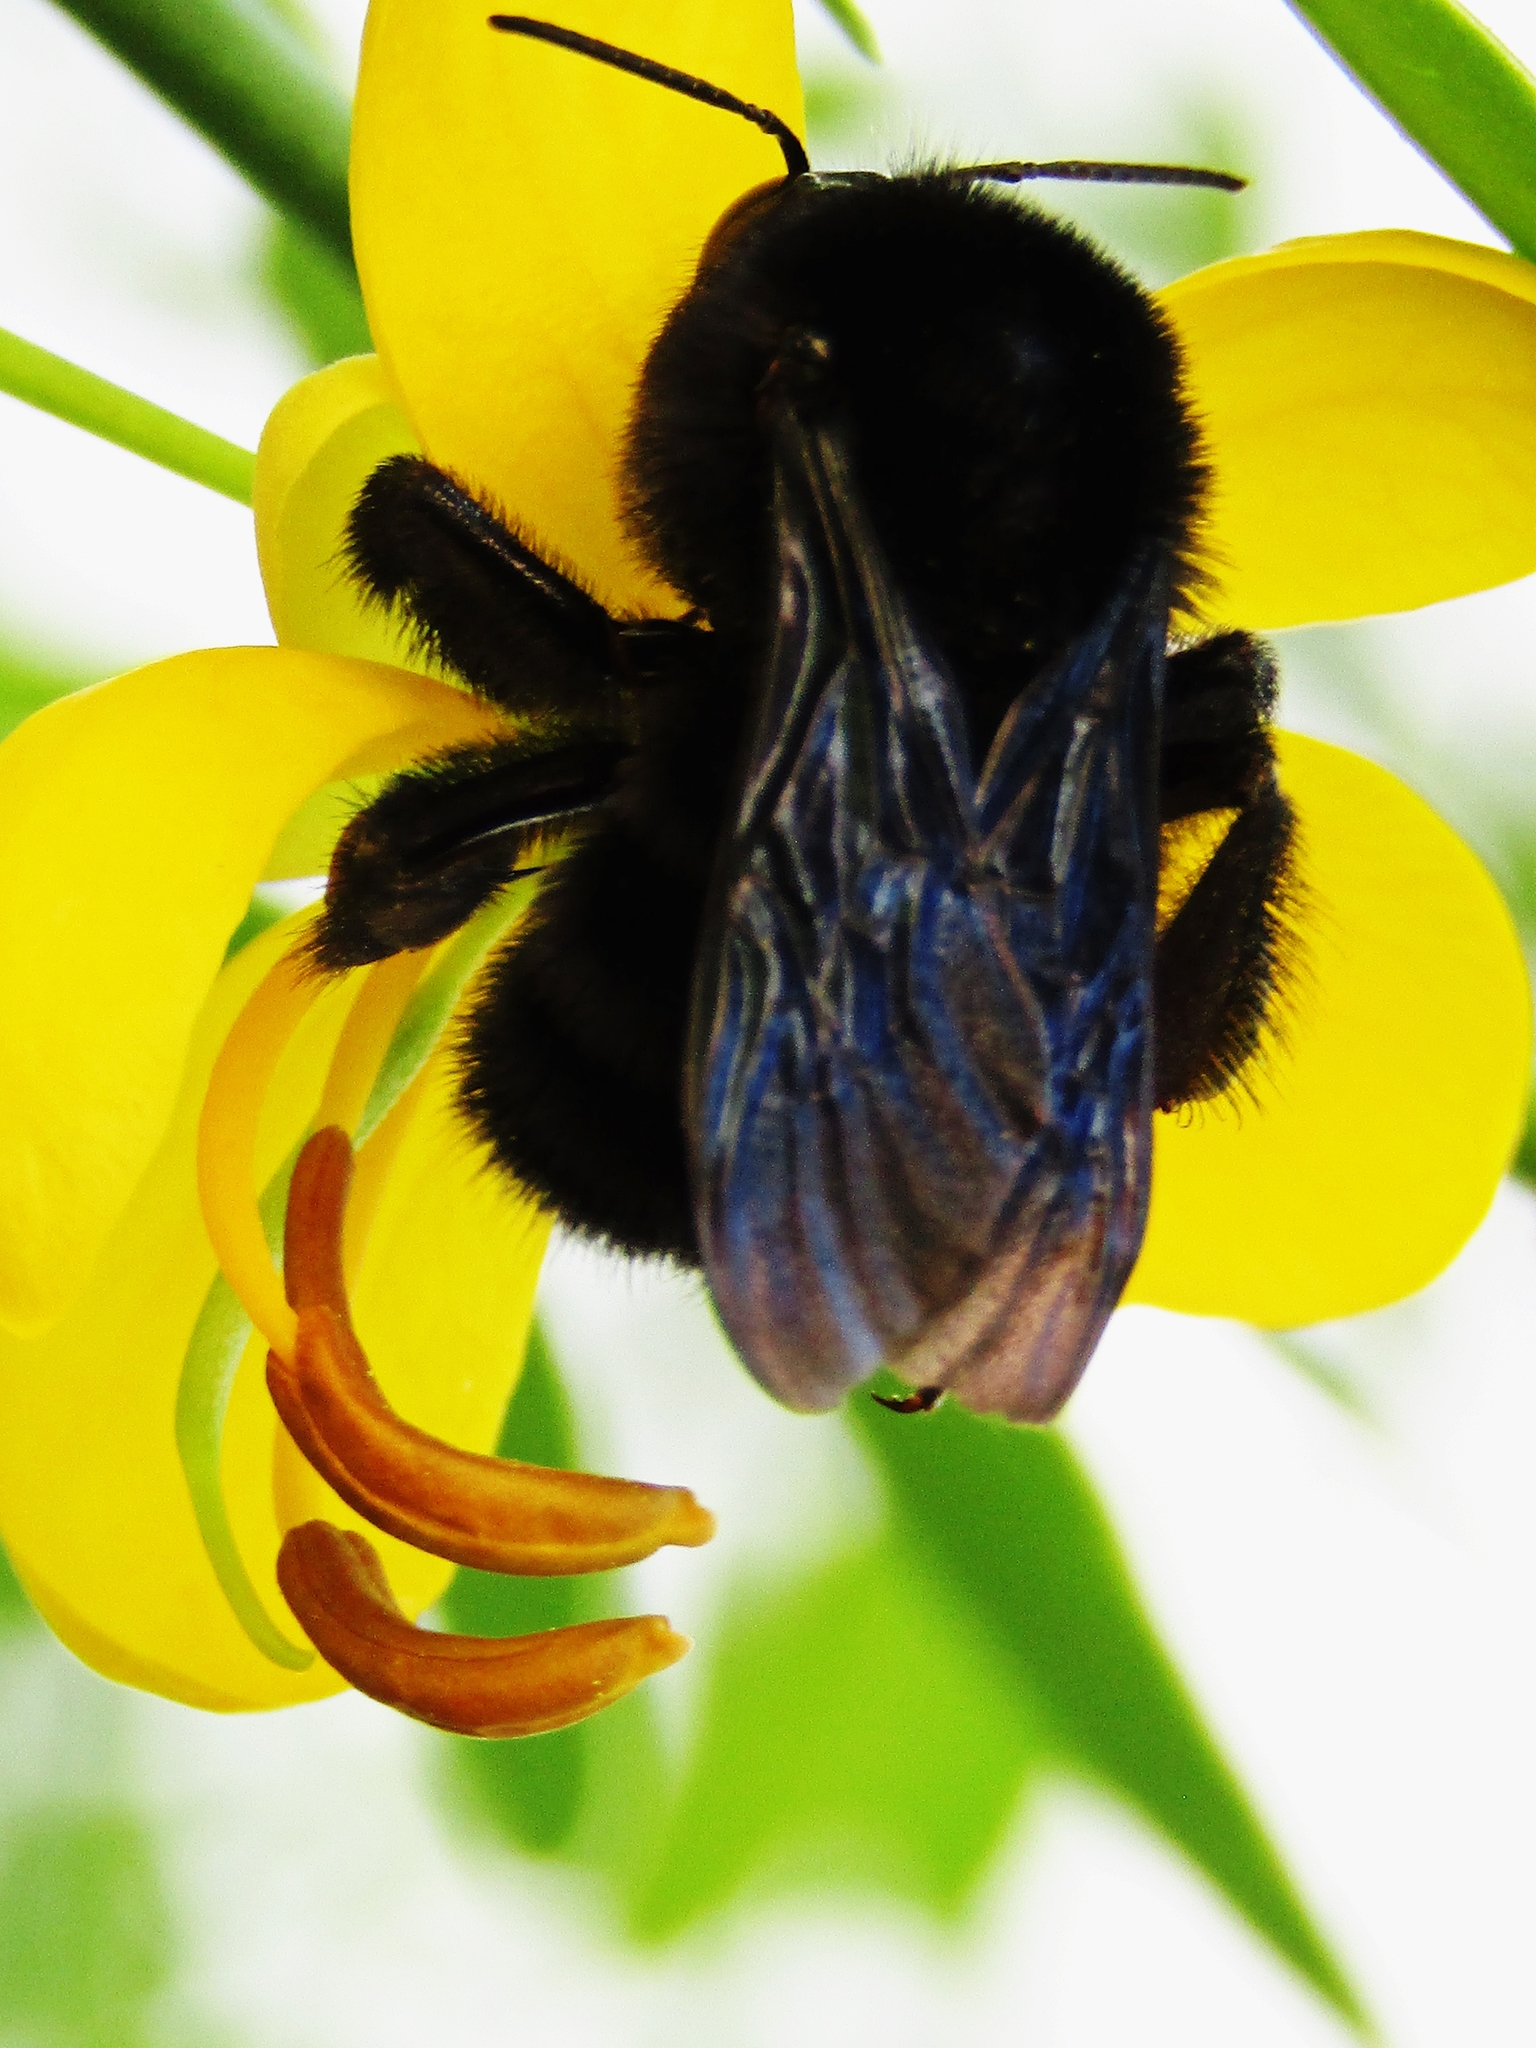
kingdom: Animalia
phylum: Arthropoda
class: Insecta
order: Hymenoptera
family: Apidae
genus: Bombus
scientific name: Bombus pauloensis
